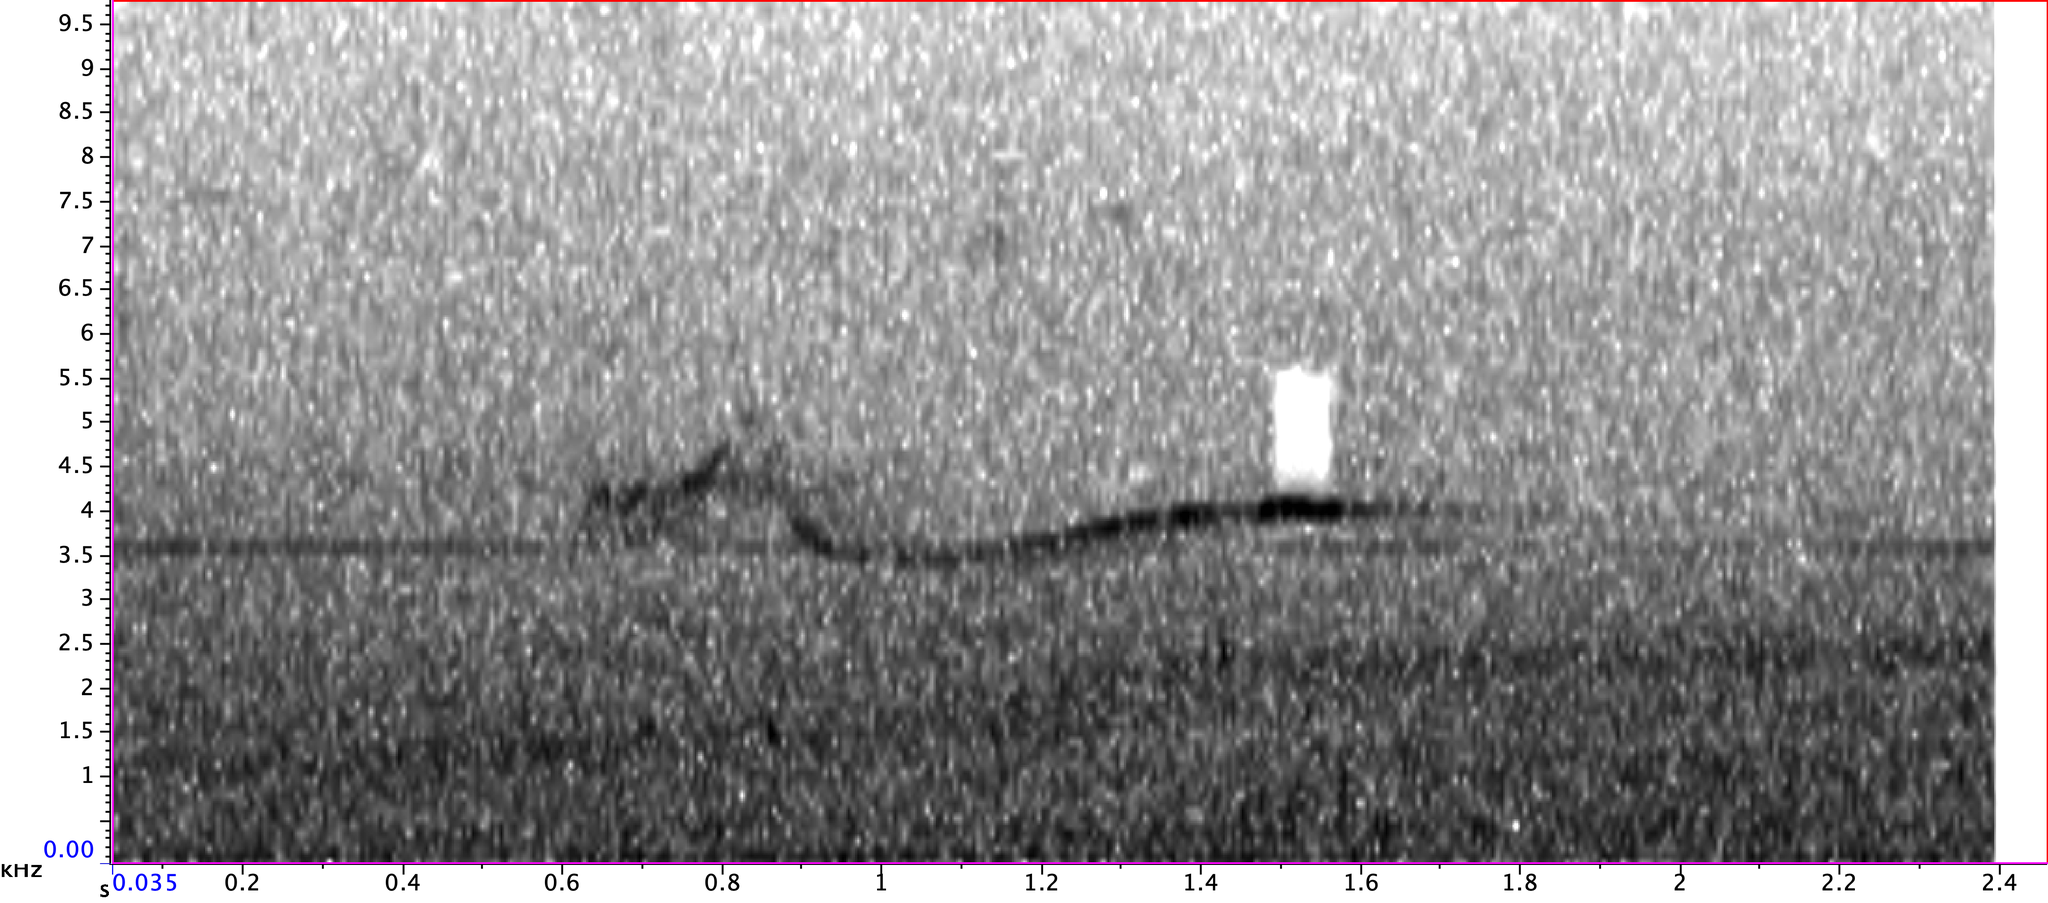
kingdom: Animalia
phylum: Chordata
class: Aves
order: Passeriformes
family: Tyrannidae
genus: Contopus
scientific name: Contopus virens
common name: Eastern wood-pewee
